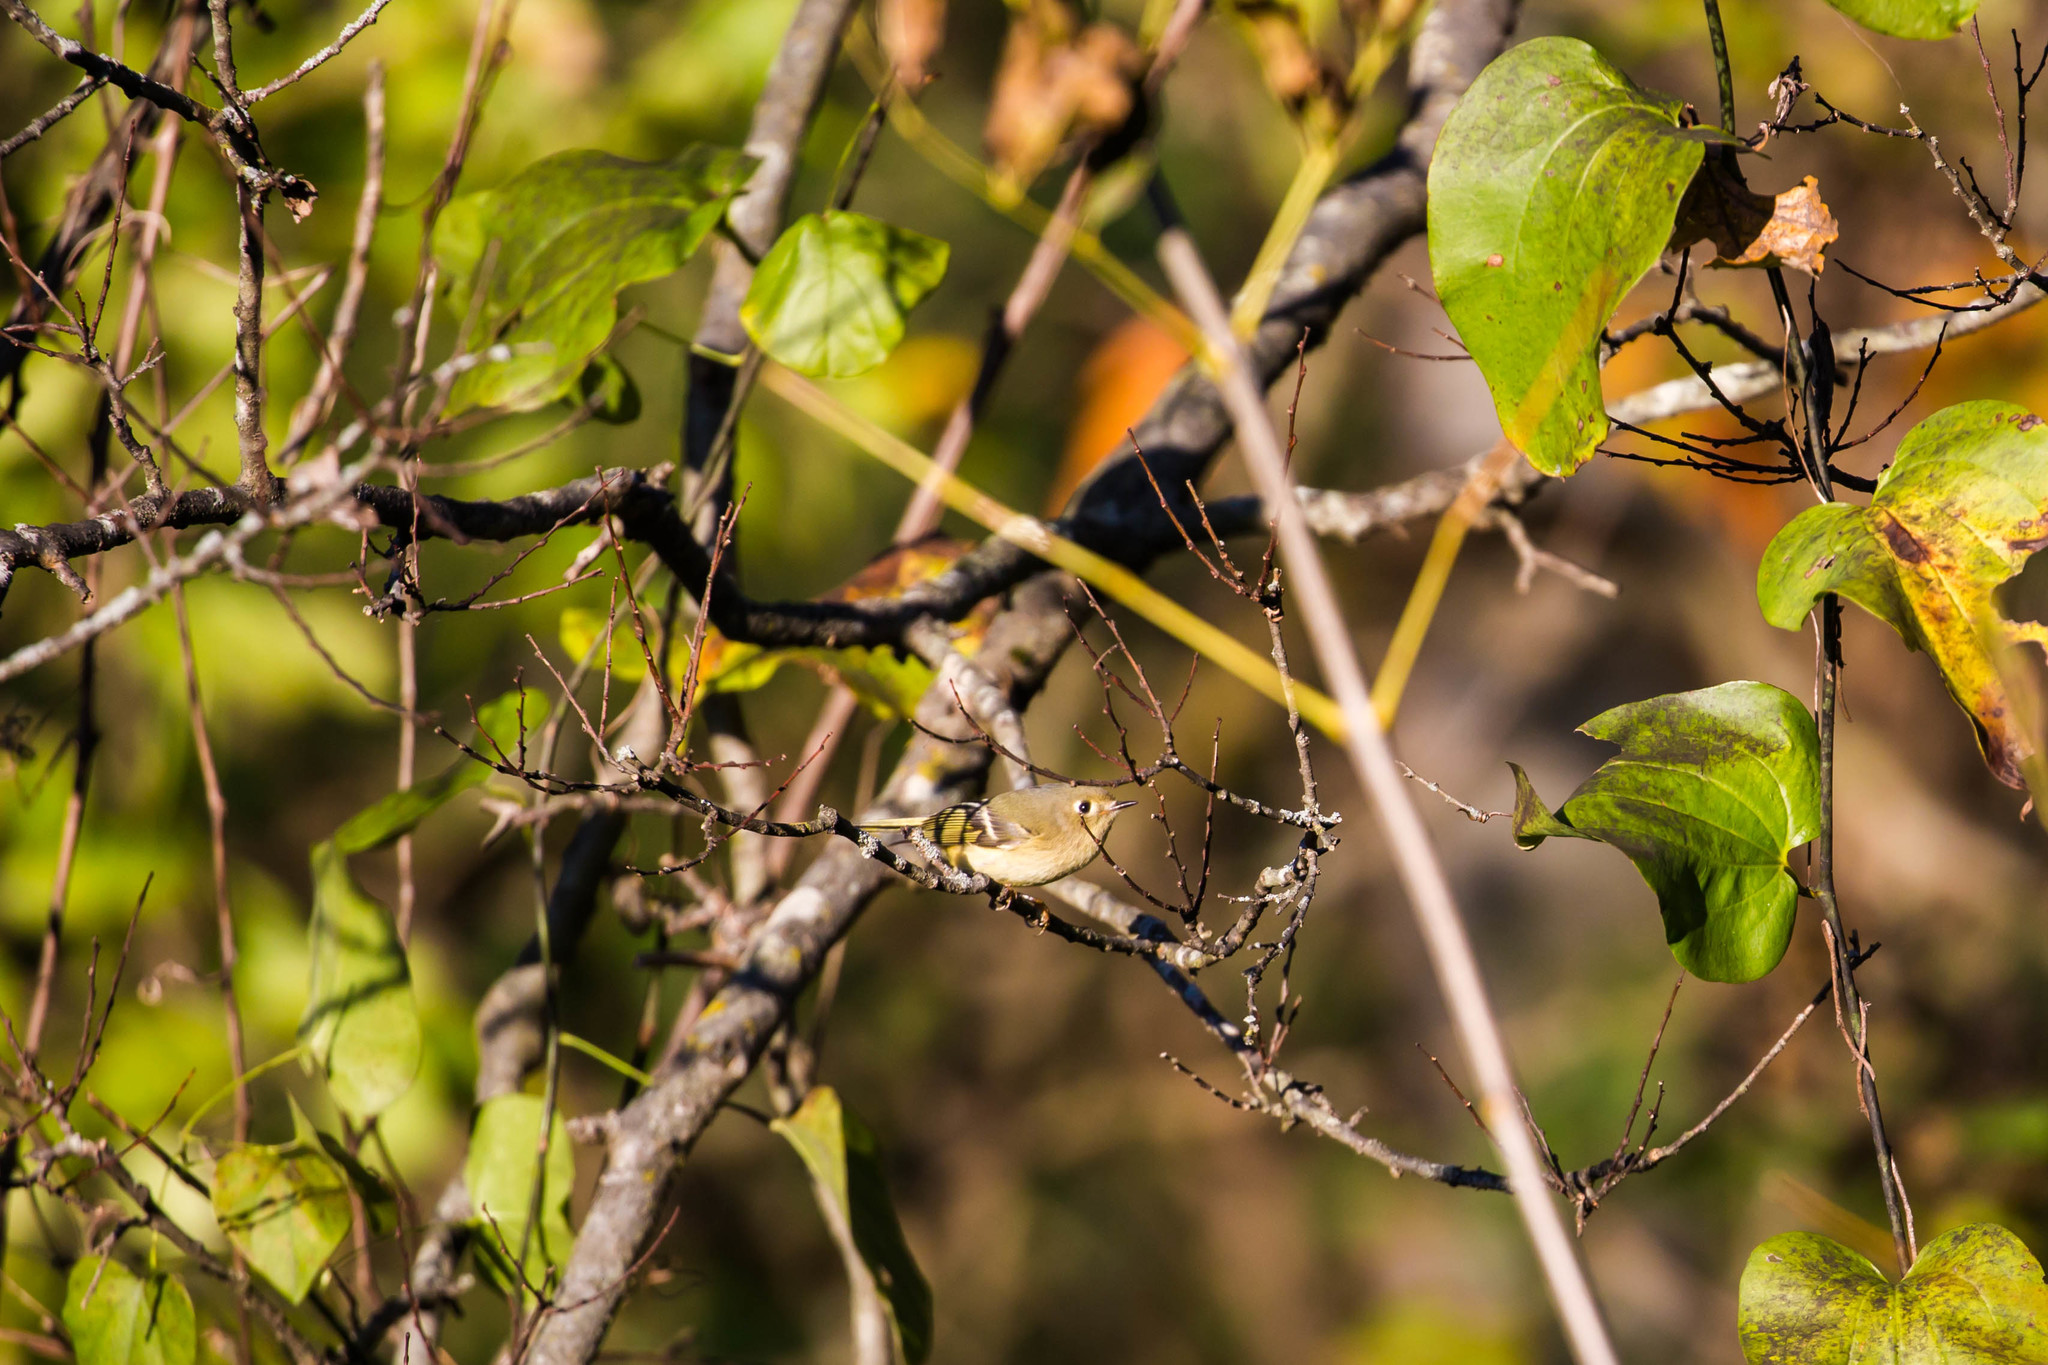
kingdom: Animalia
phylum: Chordata
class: Aves
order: Passeriformes
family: Regulidae
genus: Regulus
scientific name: Regulus calendula
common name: Ruby-crowned kinglet
